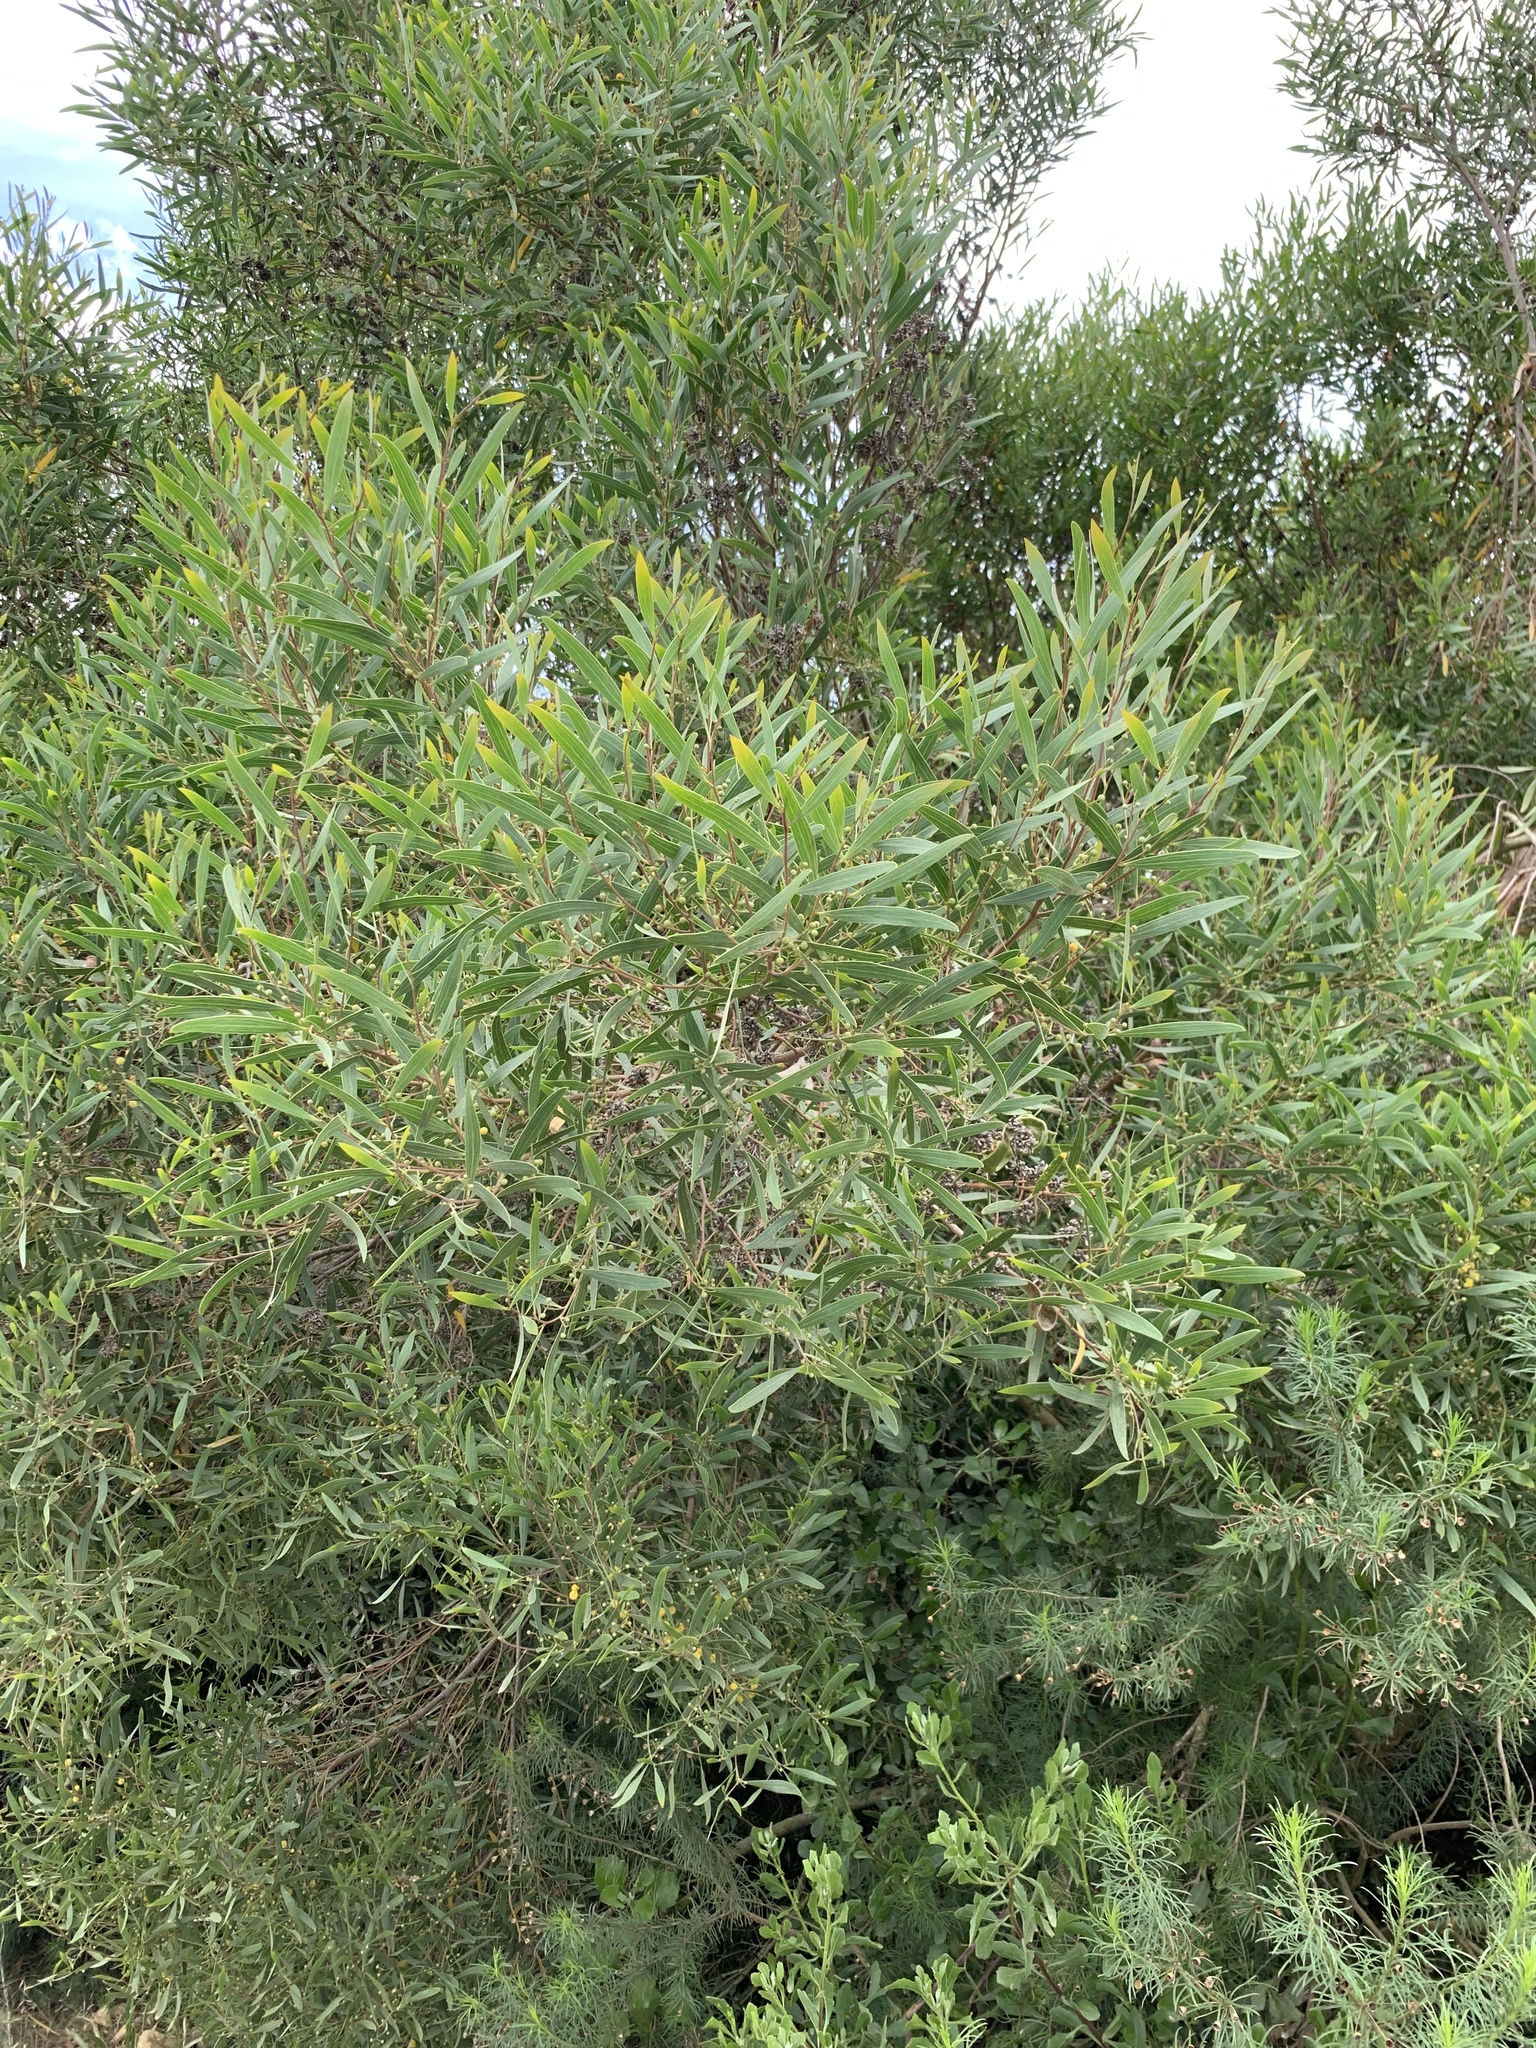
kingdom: Plantae
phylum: Tracheophyta
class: Magnoliopsida
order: Fabales
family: Fabaceae
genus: Acacia
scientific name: Acacia cyclops
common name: Coastal wattle
